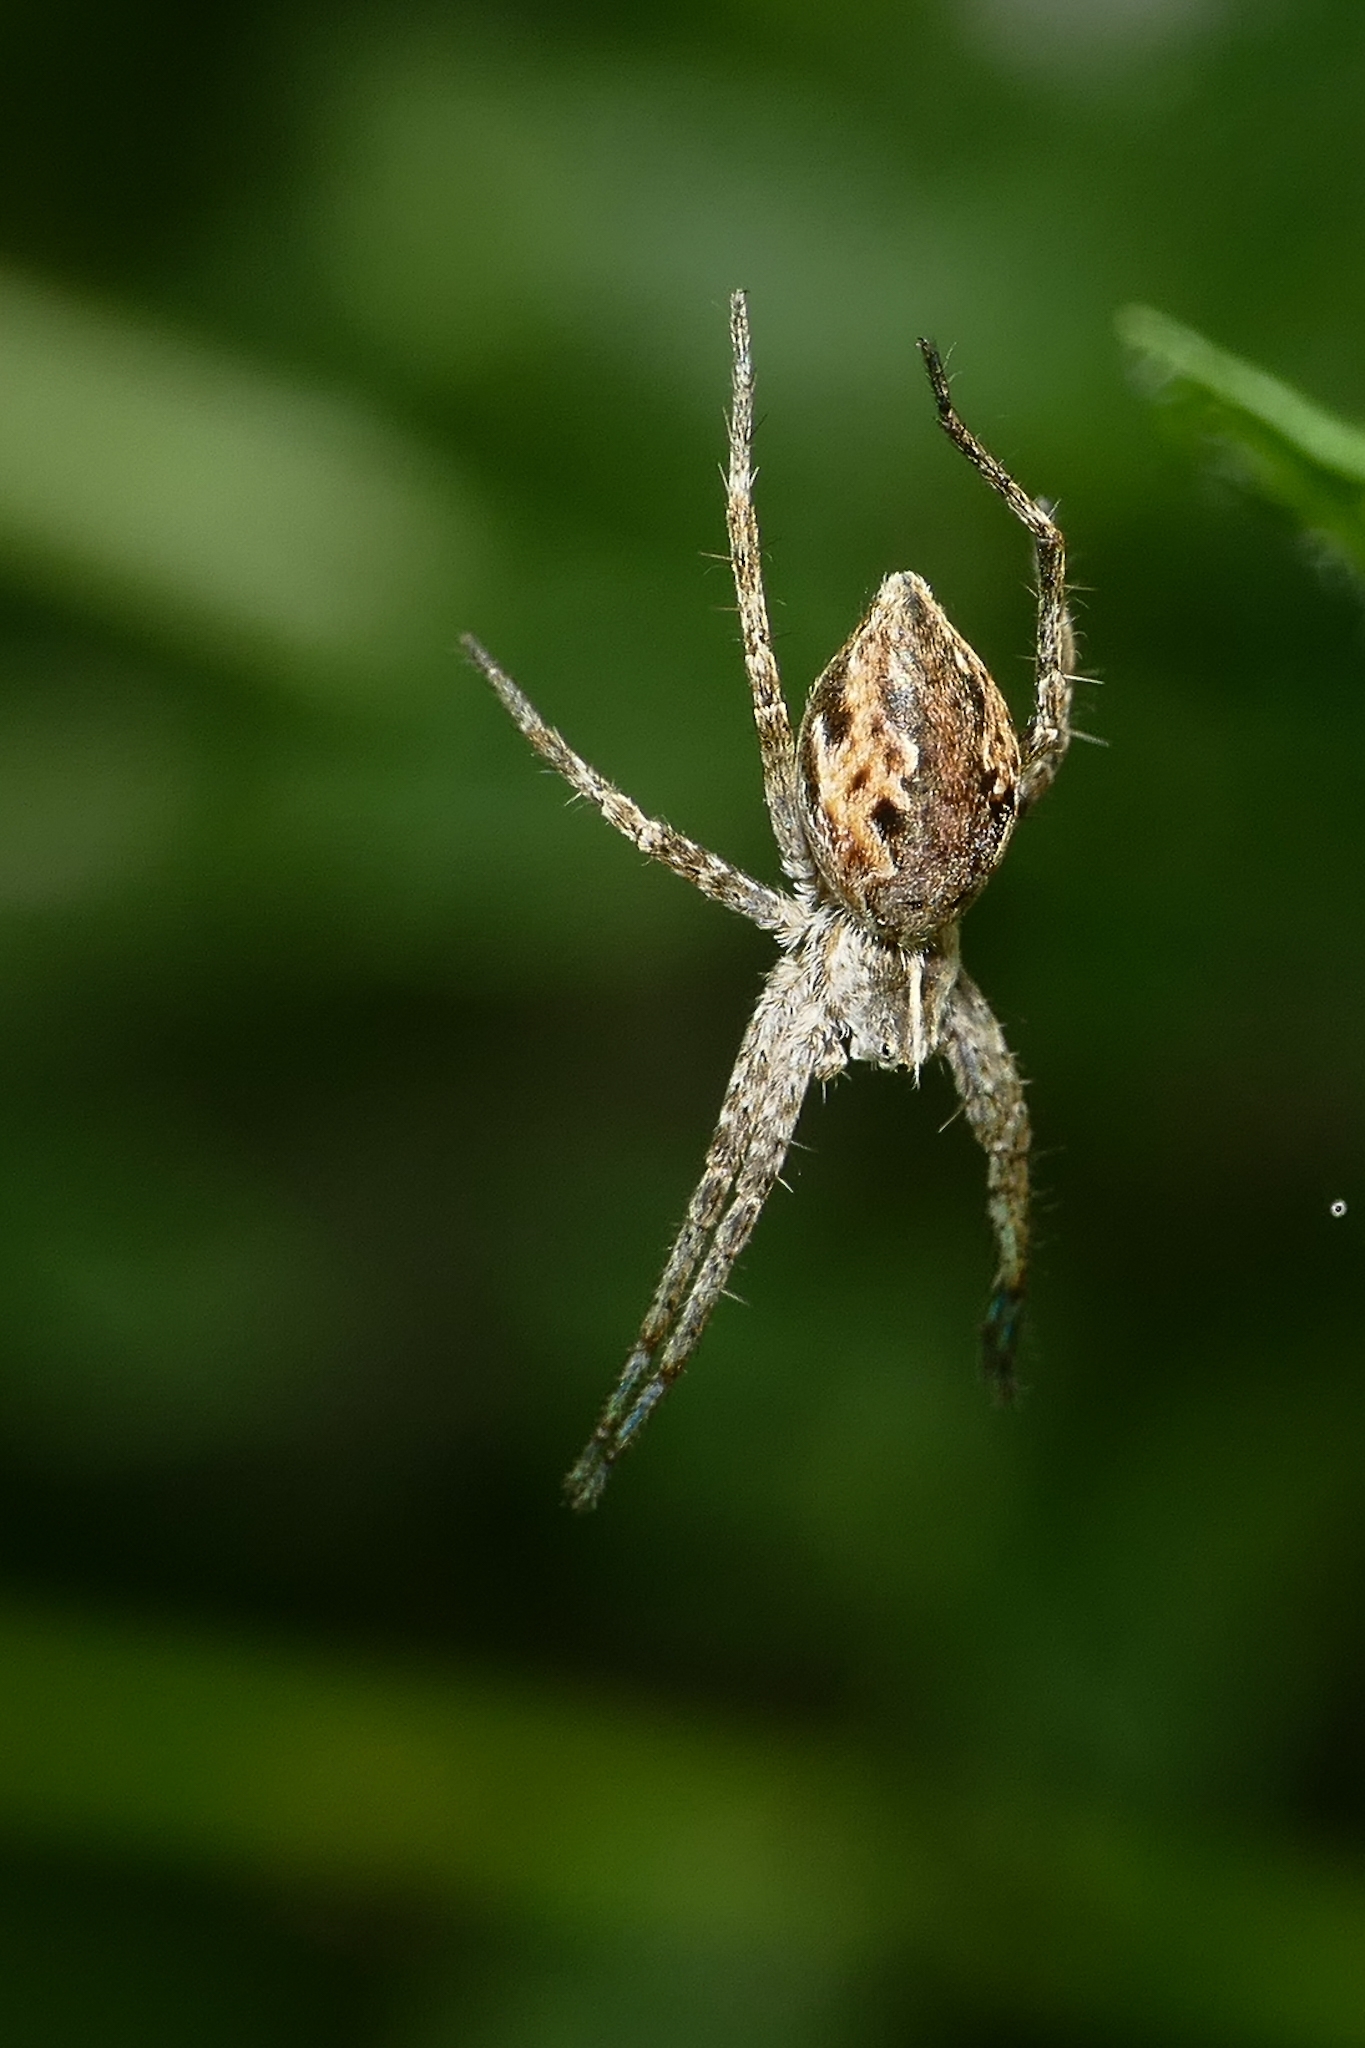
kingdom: Animalia
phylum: Arthropoda
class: Arachnida
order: Araneae
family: Pisauridae
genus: Pisaura
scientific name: Pisaura mirabilis
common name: Tent spider
